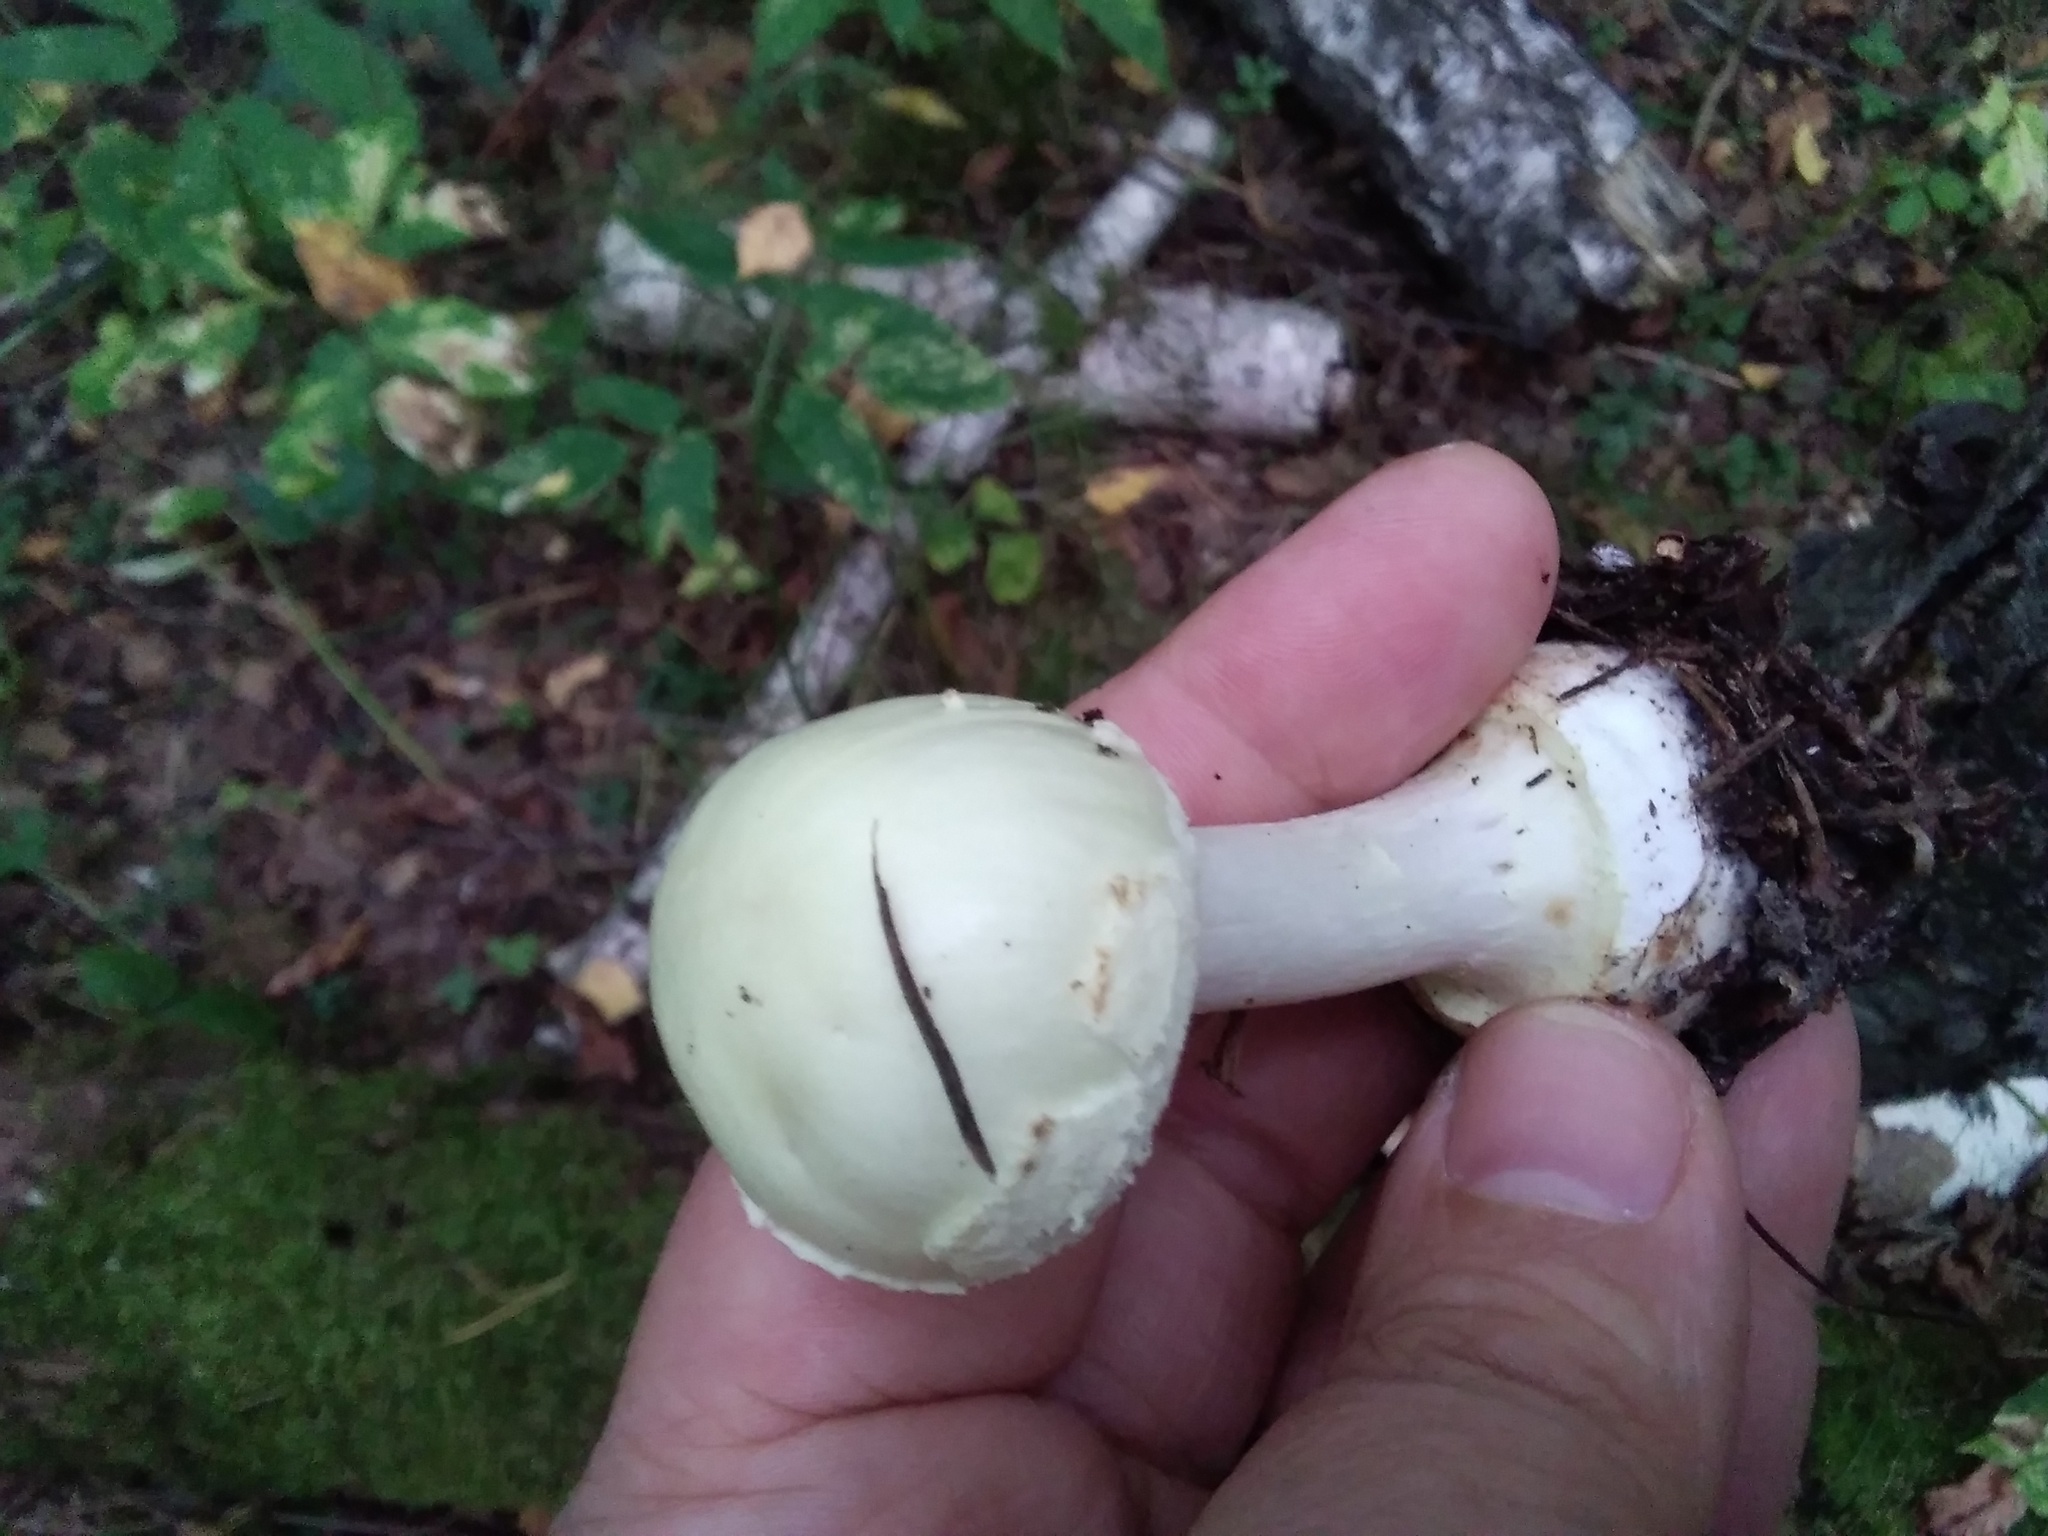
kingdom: Fungi
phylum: Basidiomycota
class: Agaricomycetes
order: Agaricales
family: Amanitaceae
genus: Amanita
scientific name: Amanita citrina
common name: False death-cap
